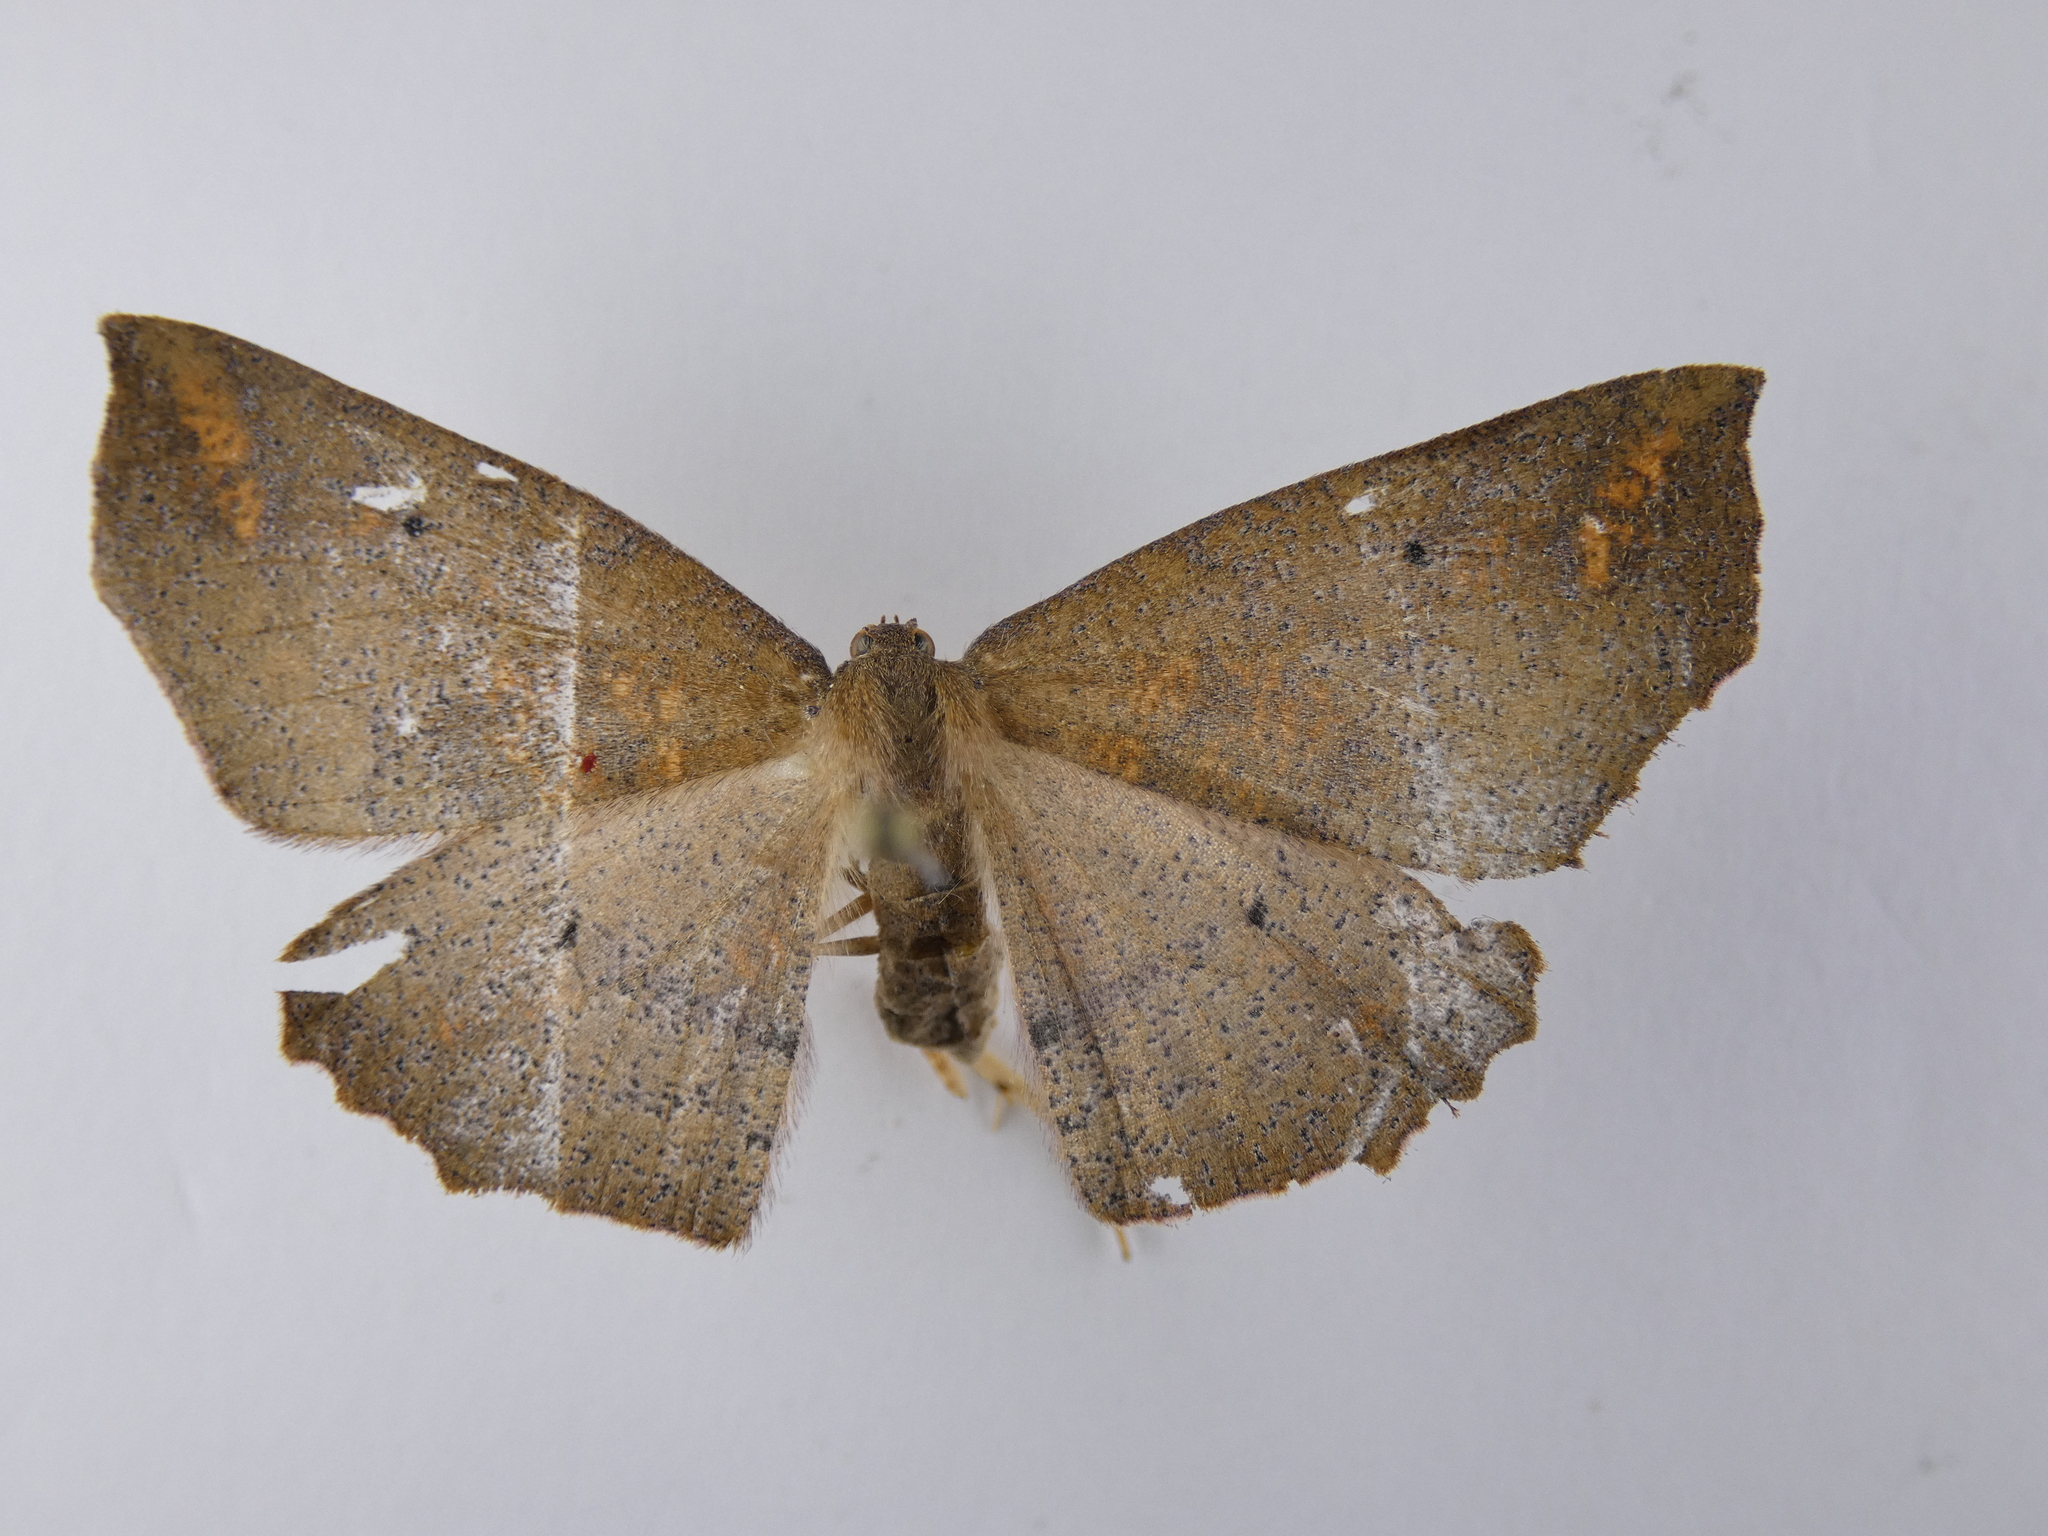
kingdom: Animalia
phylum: Arthropoda
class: Insecta
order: Lepidoptera
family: Geometridae
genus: Xyridacma
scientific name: Xyridacma ustaria
